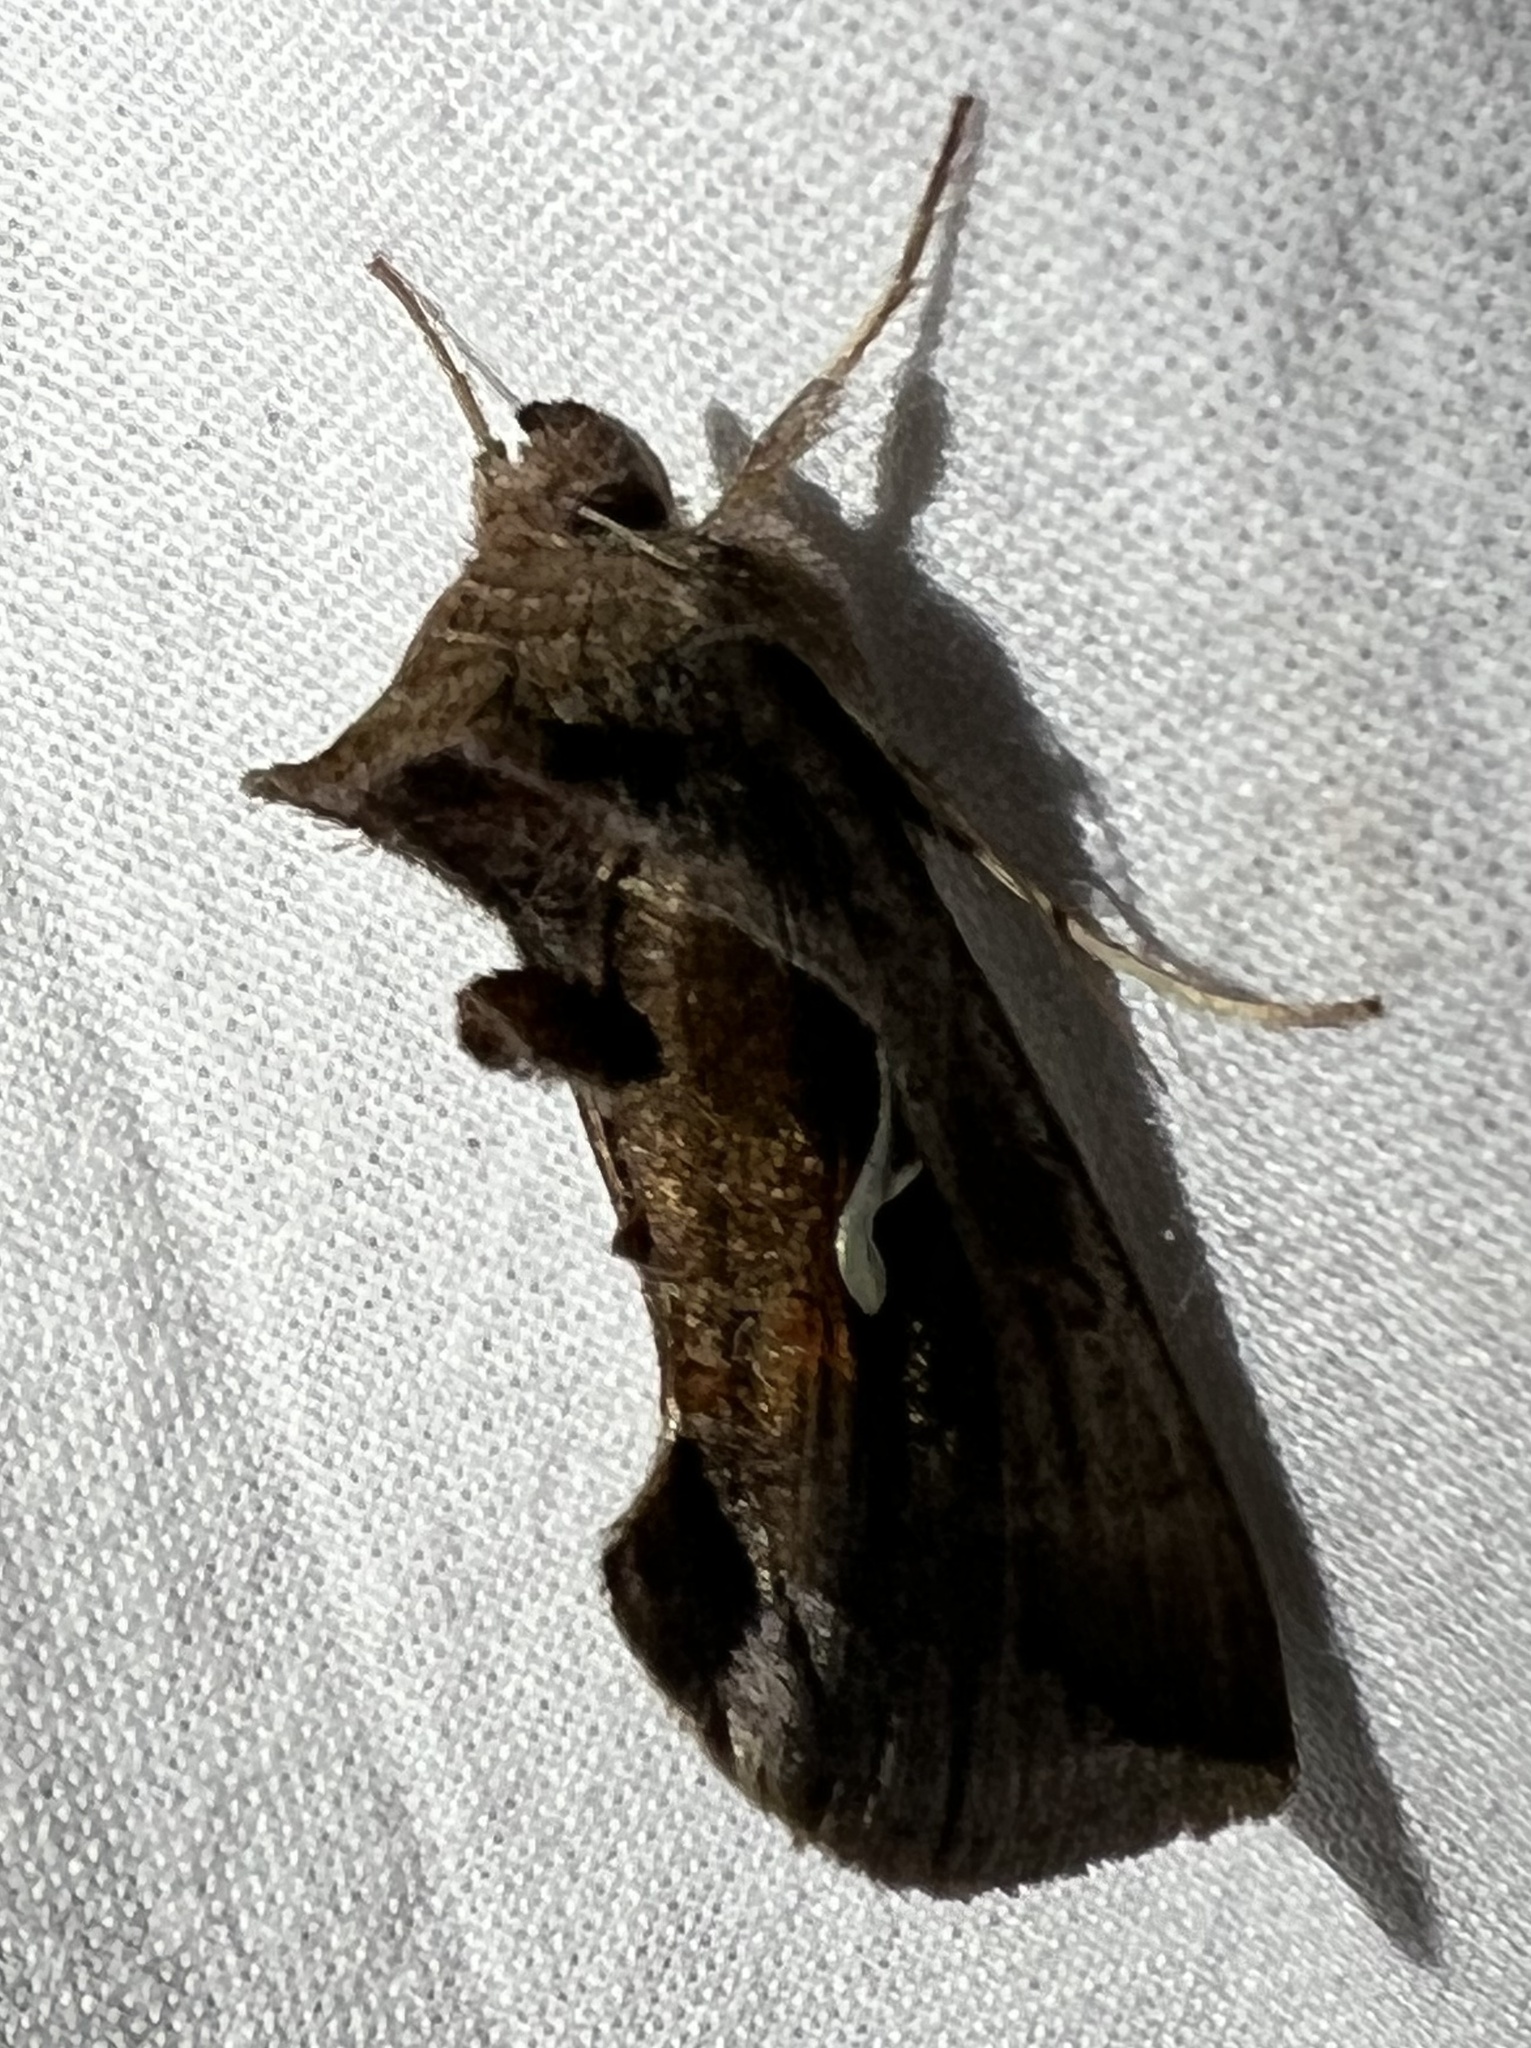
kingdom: Animalia
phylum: Arthropoda
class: Insecta
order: Lepidoptera
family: Noctuidae
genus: Anagrapha
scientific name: Anagrapha falcifera
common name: Celery looper
